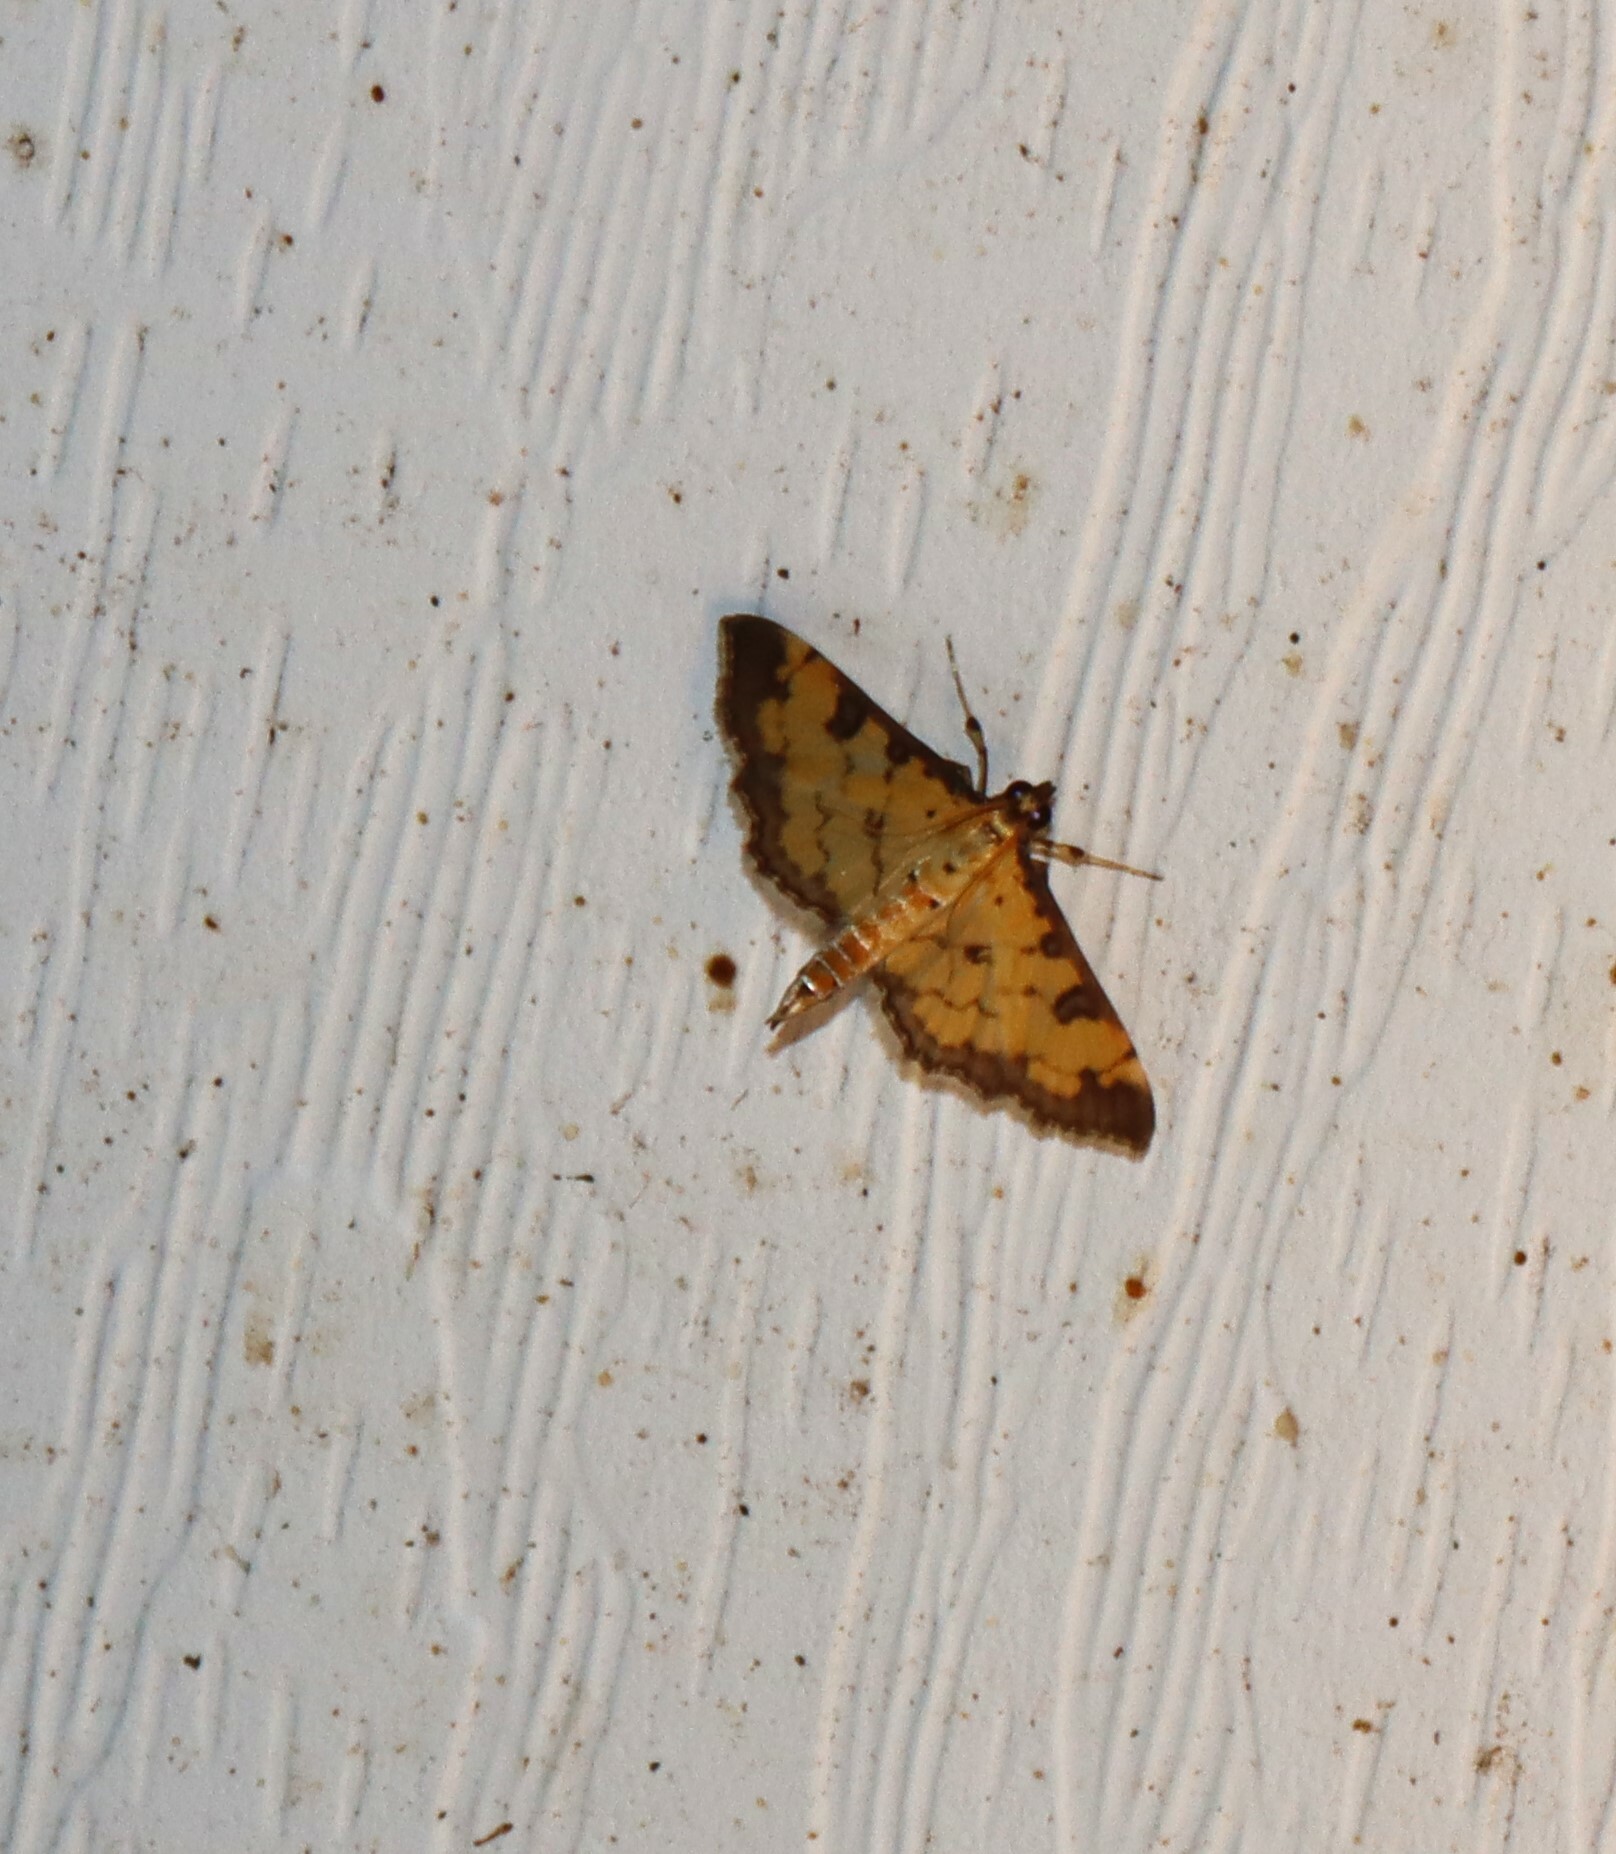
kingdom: Animalia
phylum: Arthropoda
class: Insecta
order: Lepidoptera
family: Crambidae
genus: Ategumia
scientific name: Ategumia ebulealis
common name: Moth
